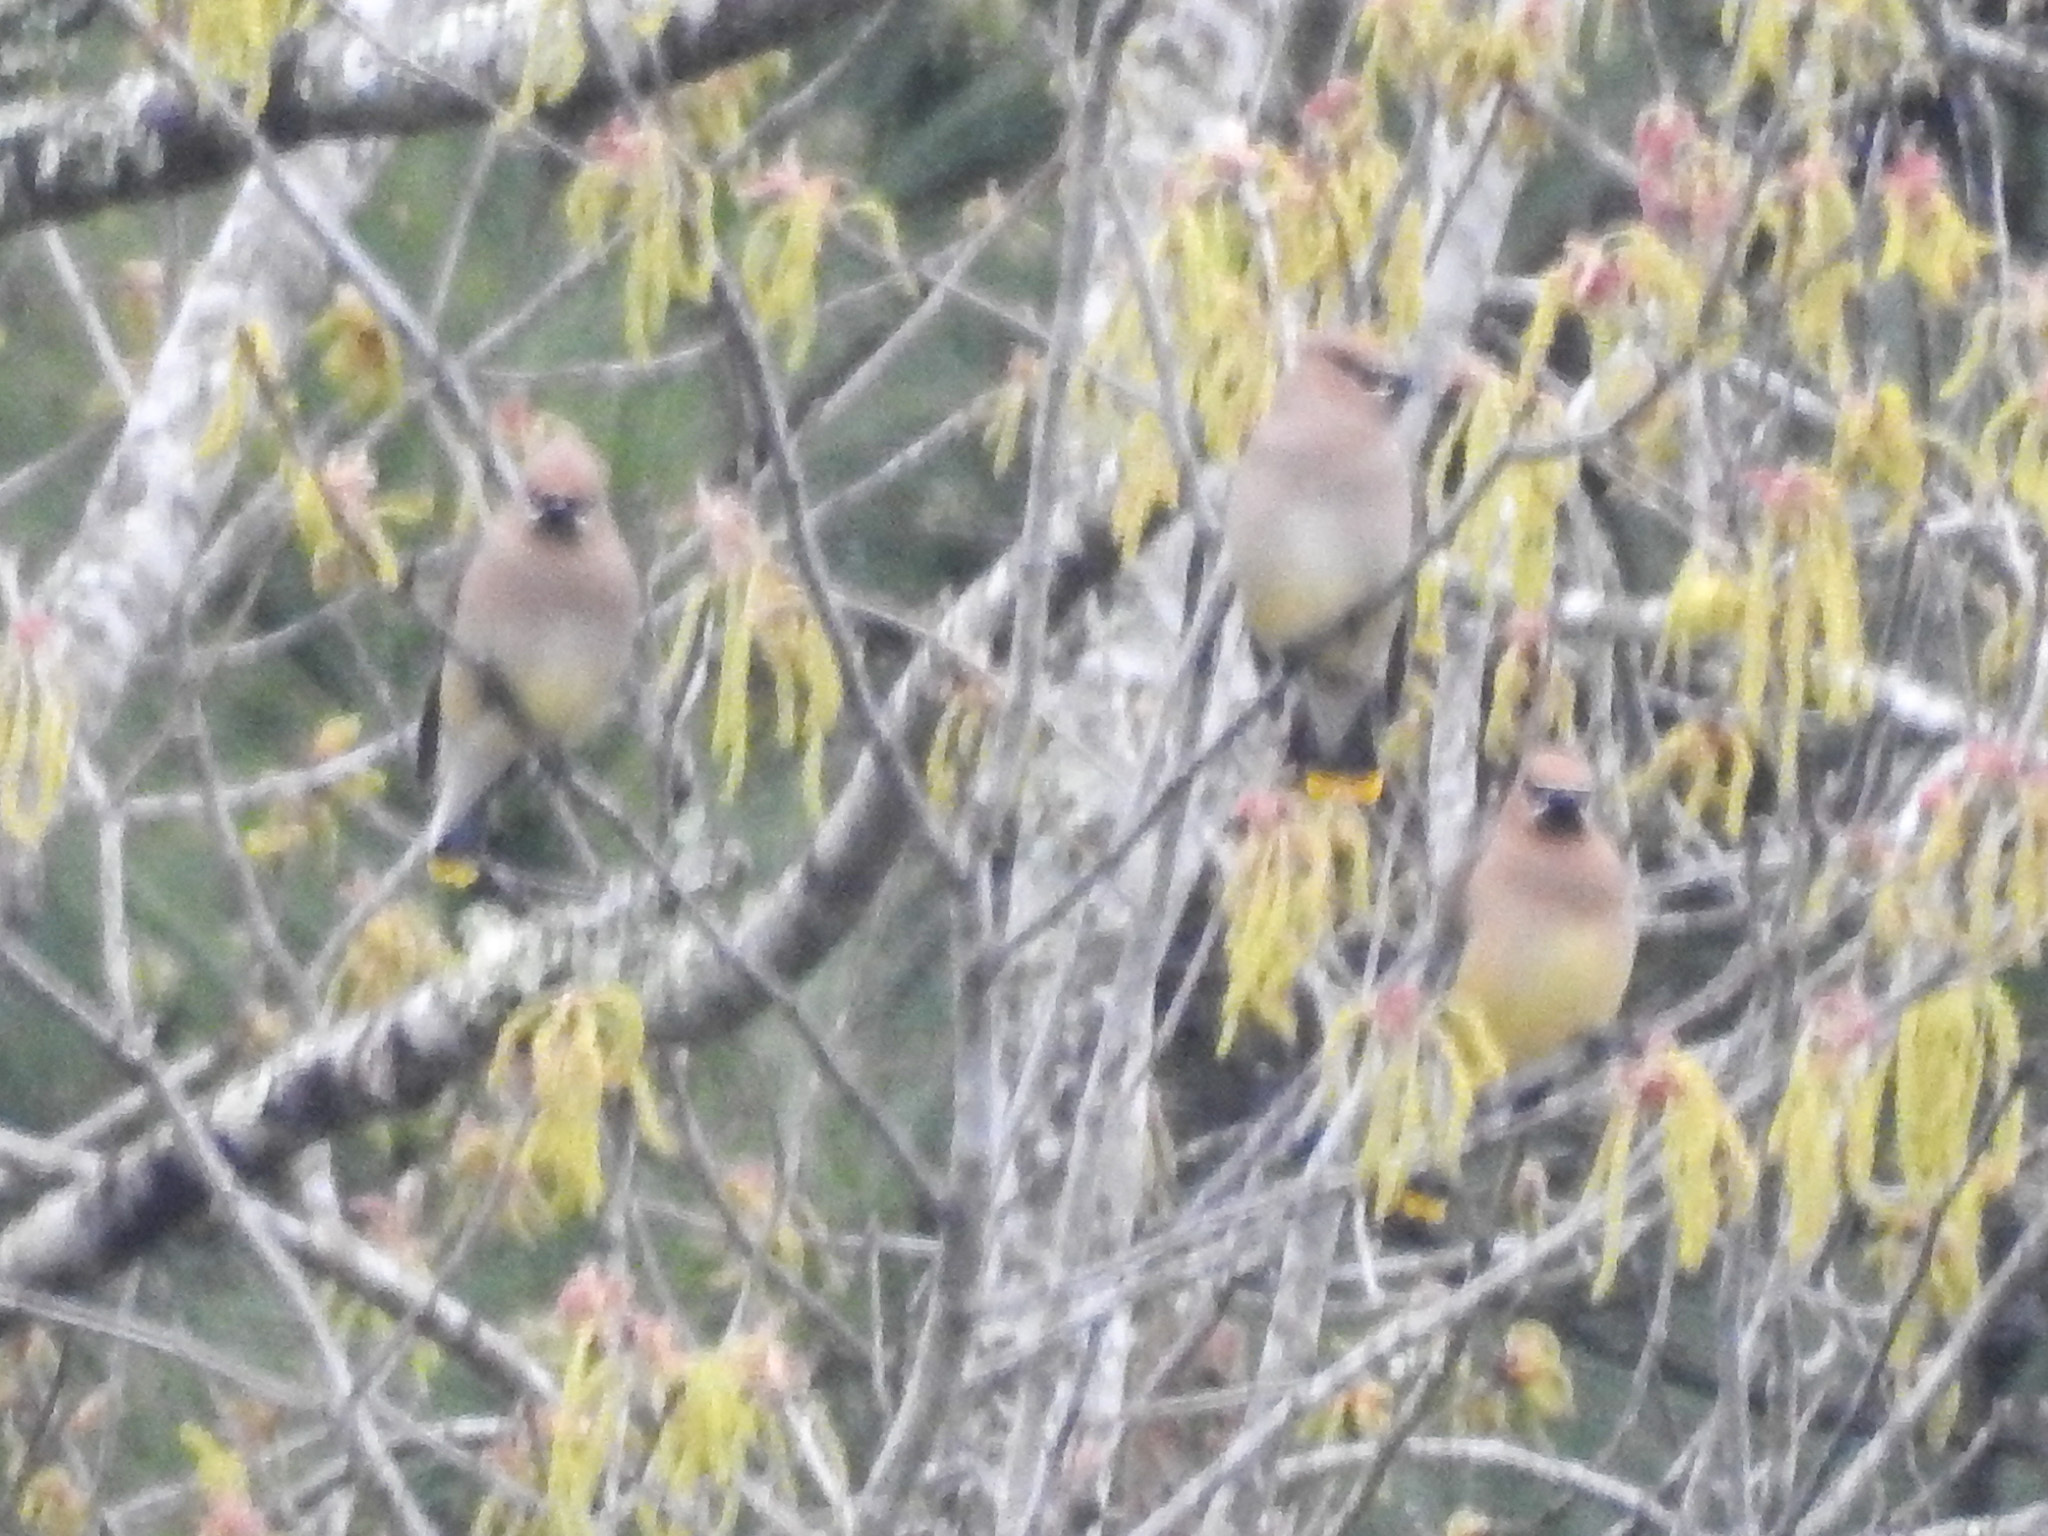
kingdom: Animalia
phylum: Chordata
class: Aves
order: Passeriformes
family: Bombycillidae
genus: Bombycilla
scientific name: Bombycilla cedrorum
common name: Cedar waxwing
